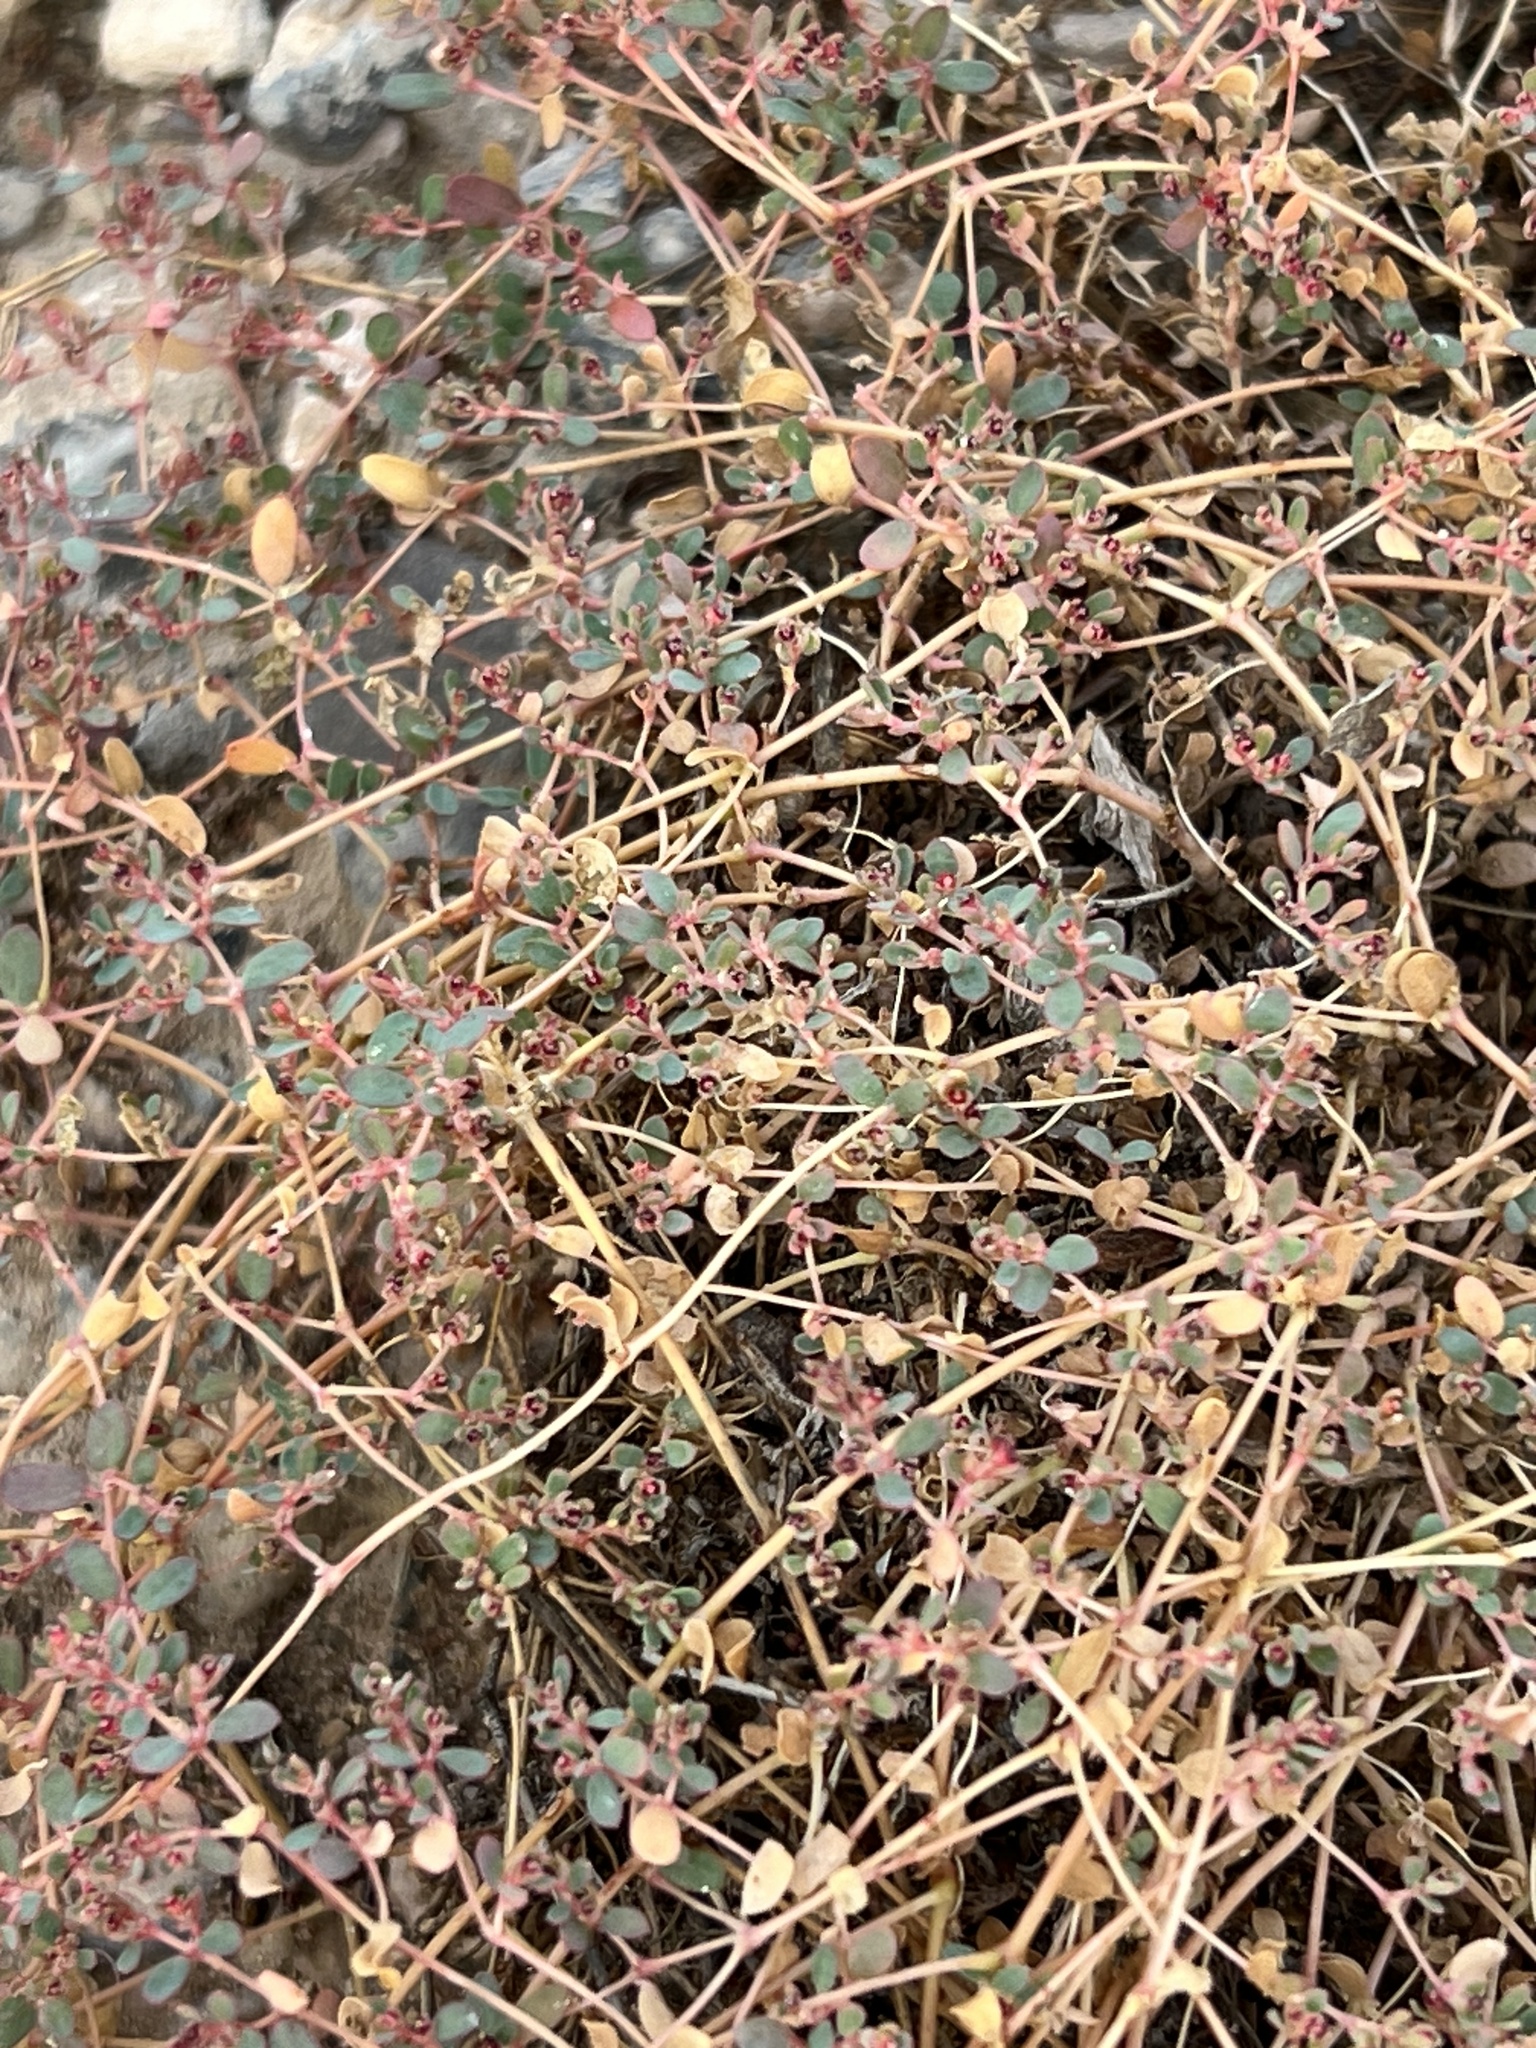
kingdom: Plantae
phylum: Tracheophyta
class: Magnoliopsida
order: Malpighiales
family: Euphorbiaceae
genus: Euphorbia
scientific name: Euphorbia polycarpa
